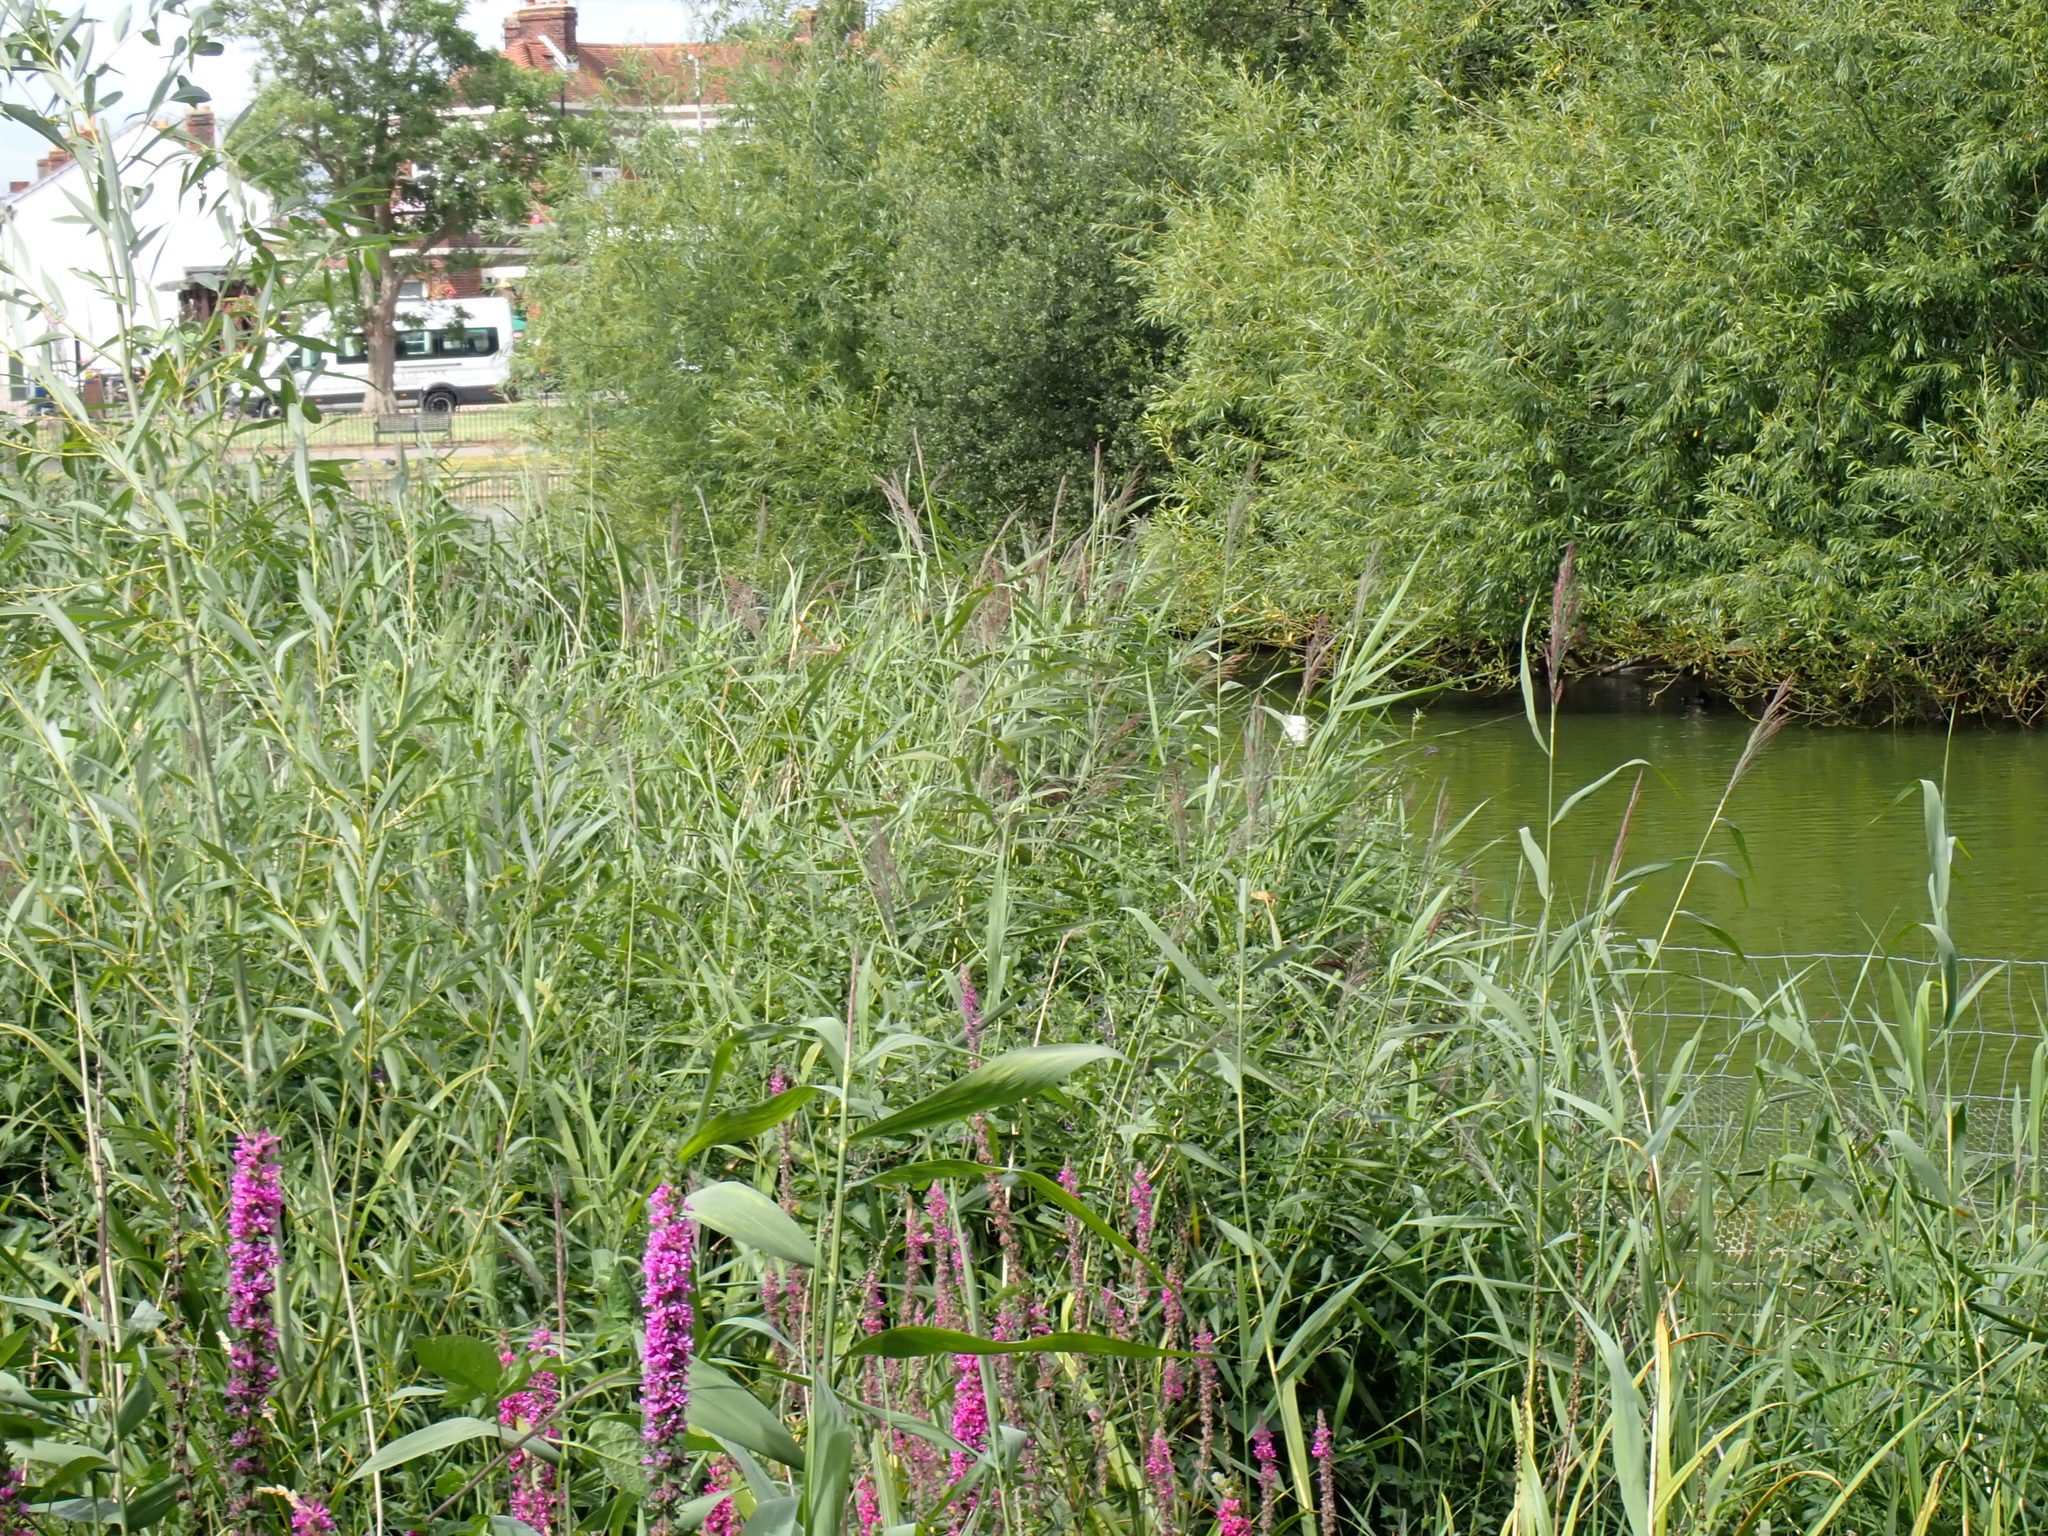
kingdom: Plantae
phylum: Tracheophyta
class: Liliopsida
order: Poales
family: Poaceae
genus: Phragmites
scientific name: Phragmites australis
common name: Common reed
